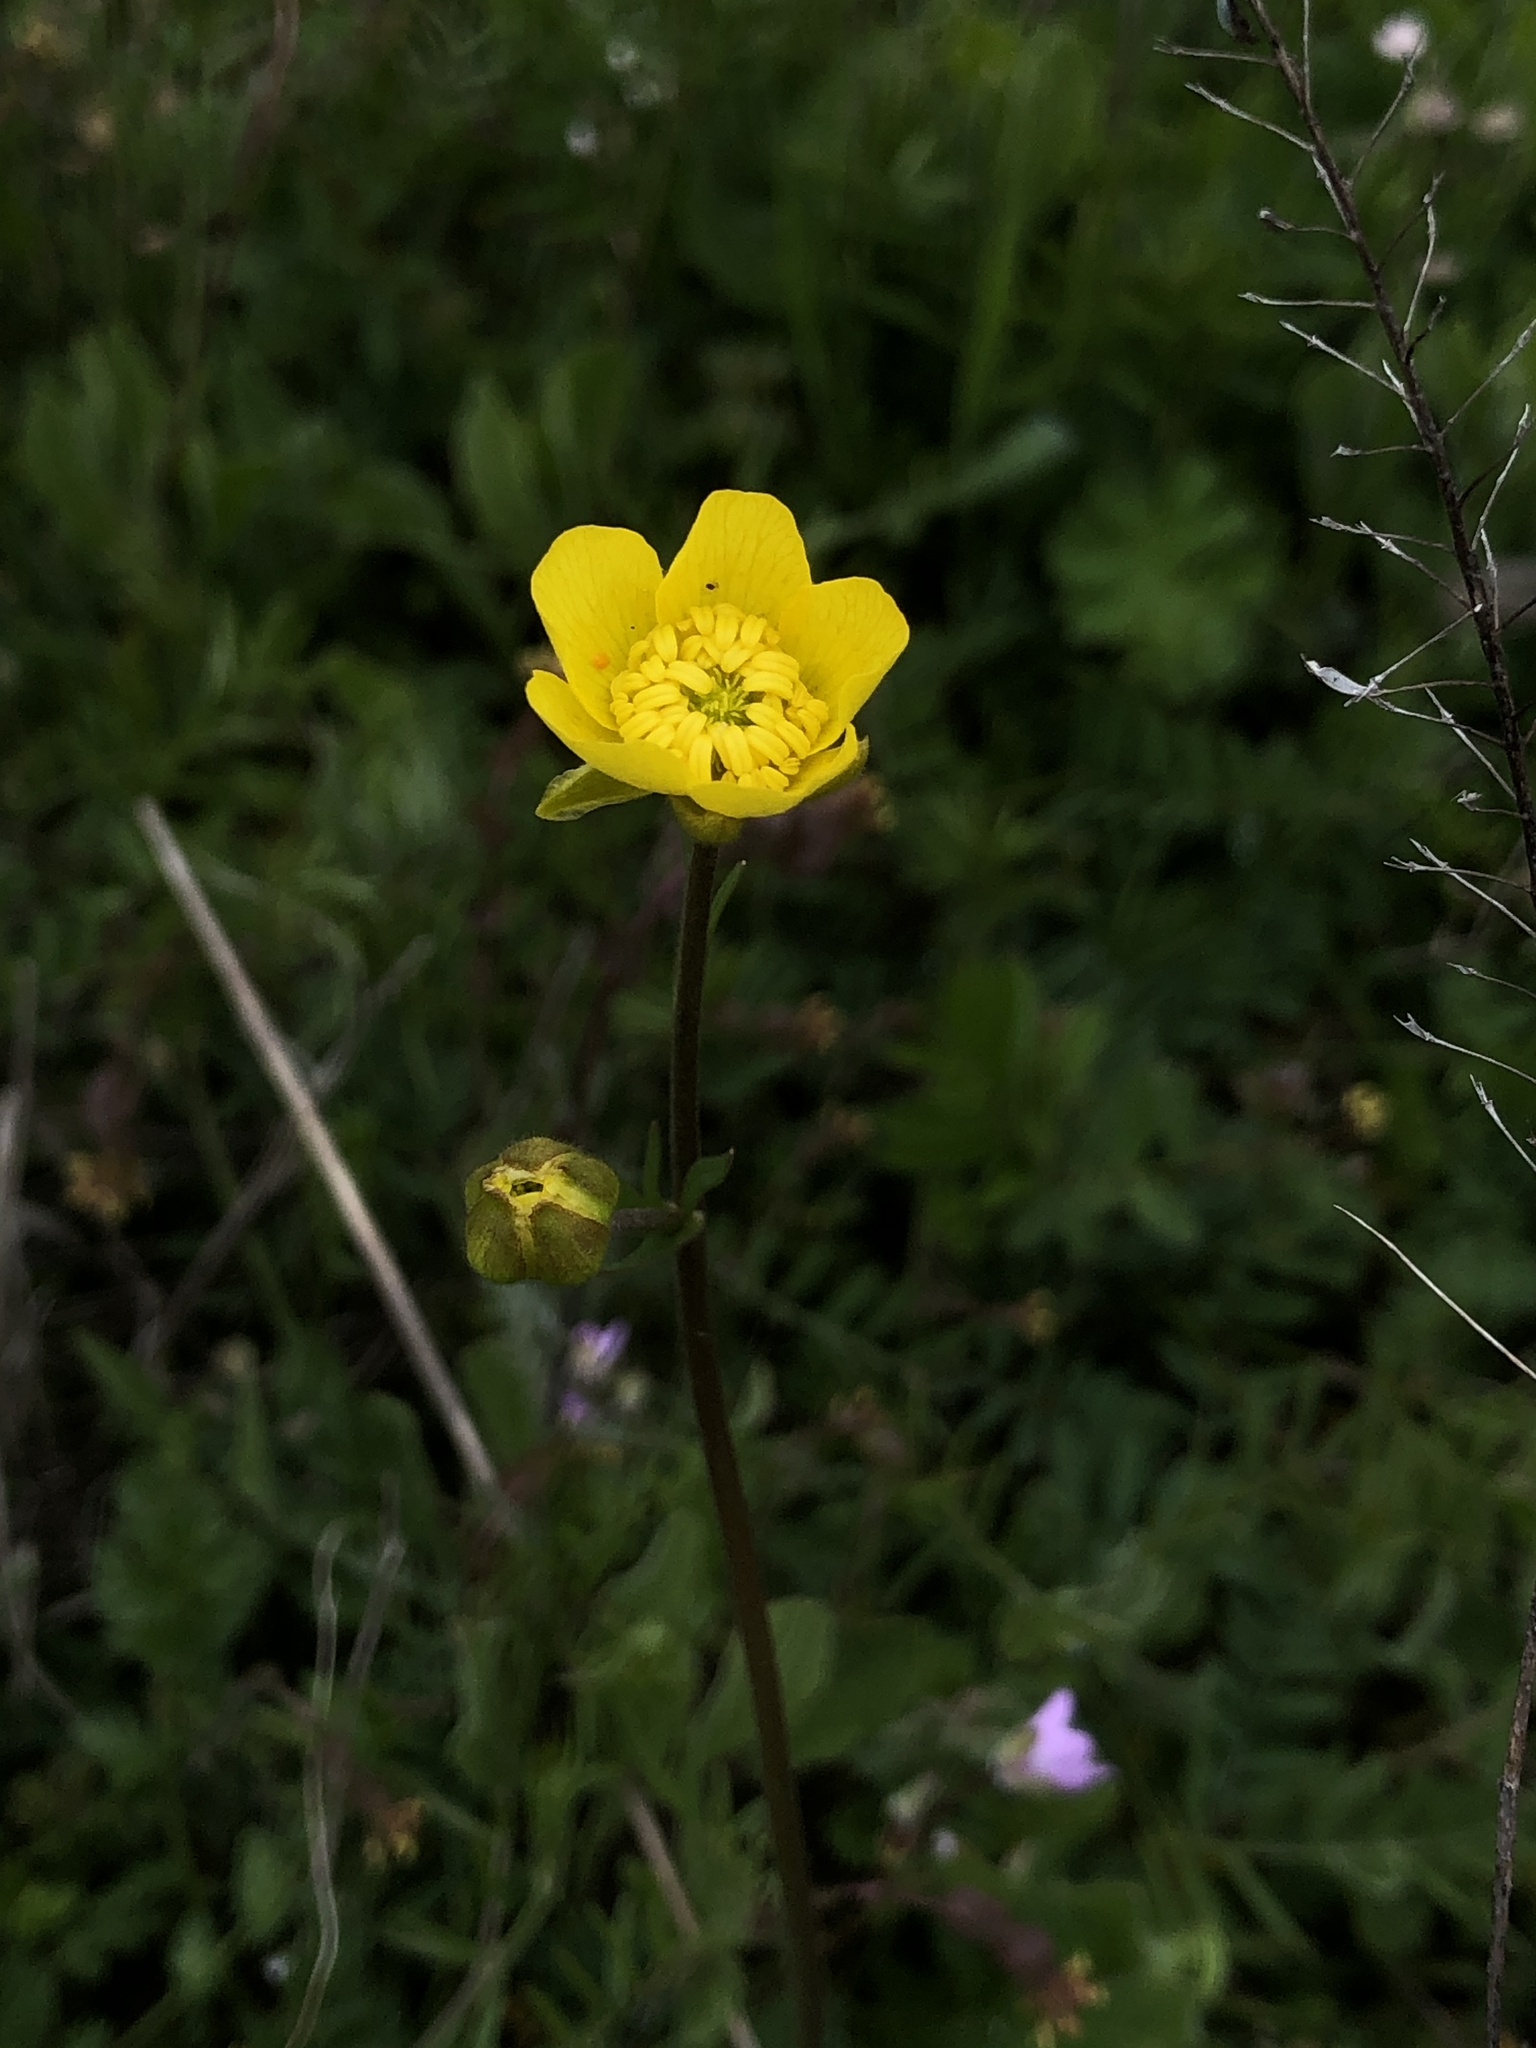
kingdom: Plantae
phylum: Tracheophyta
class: Magnoliopsida
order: Ranunculales
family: Ranunculaceae
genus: Ranunculus
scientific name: Ranunculus pedatus
